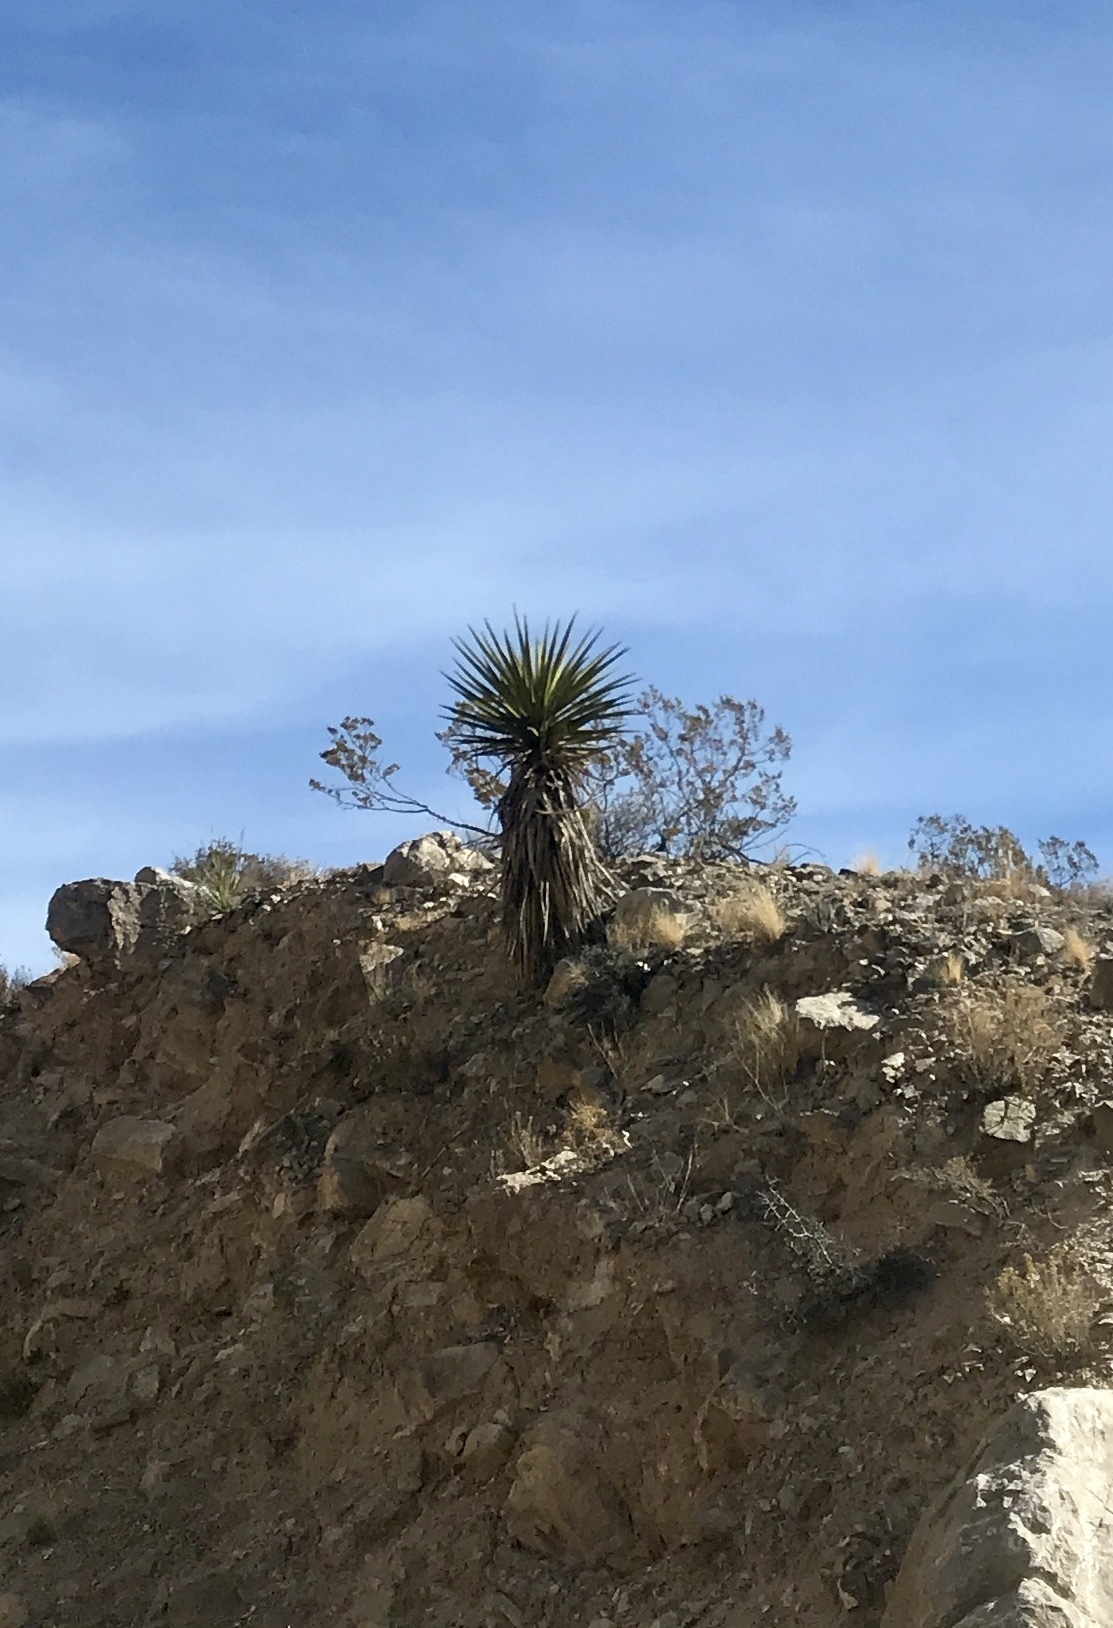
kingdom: Plantae
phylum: Tracheophyta
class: Liliopsida
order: Asparagales
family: Asparagaceae
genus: Yucca
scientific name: Yucca treculiana
